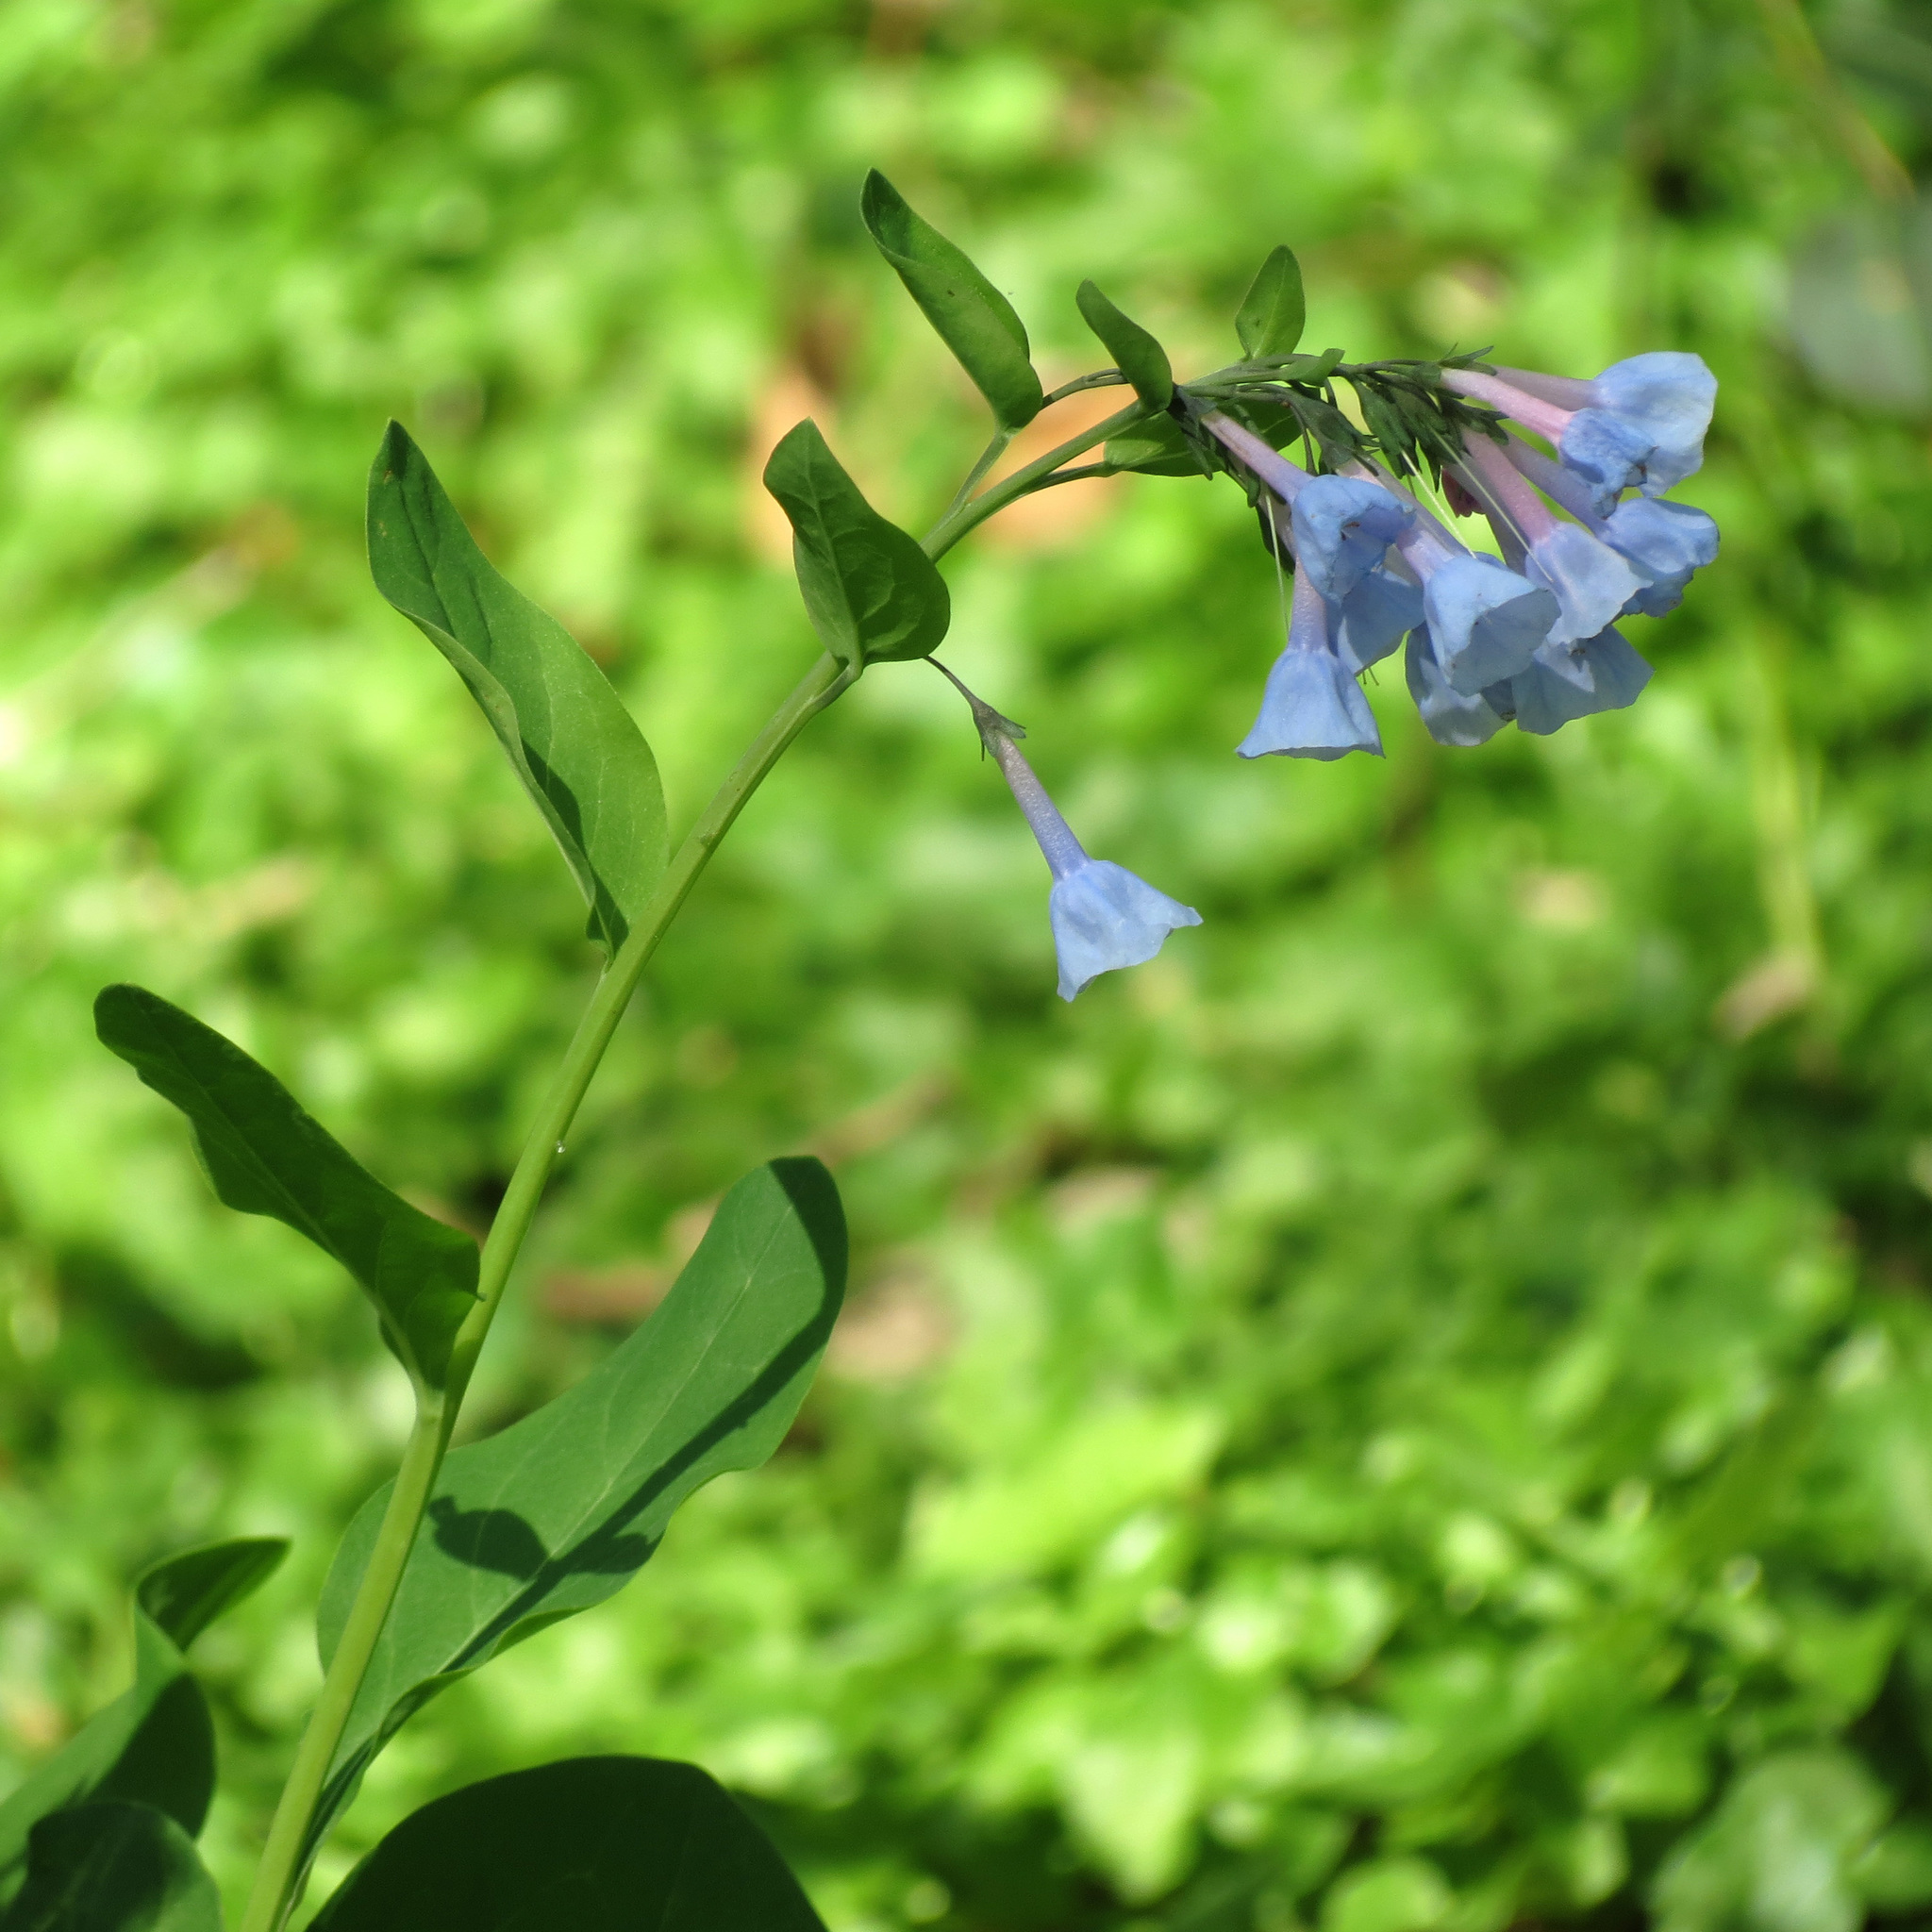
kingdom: Plantae
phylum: Tracheophyta
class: Magnoliopsida
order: Boraginales
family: Boraginaceae
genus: Mertensia
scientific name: Mertensia virginica
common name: Virginia bluebells
